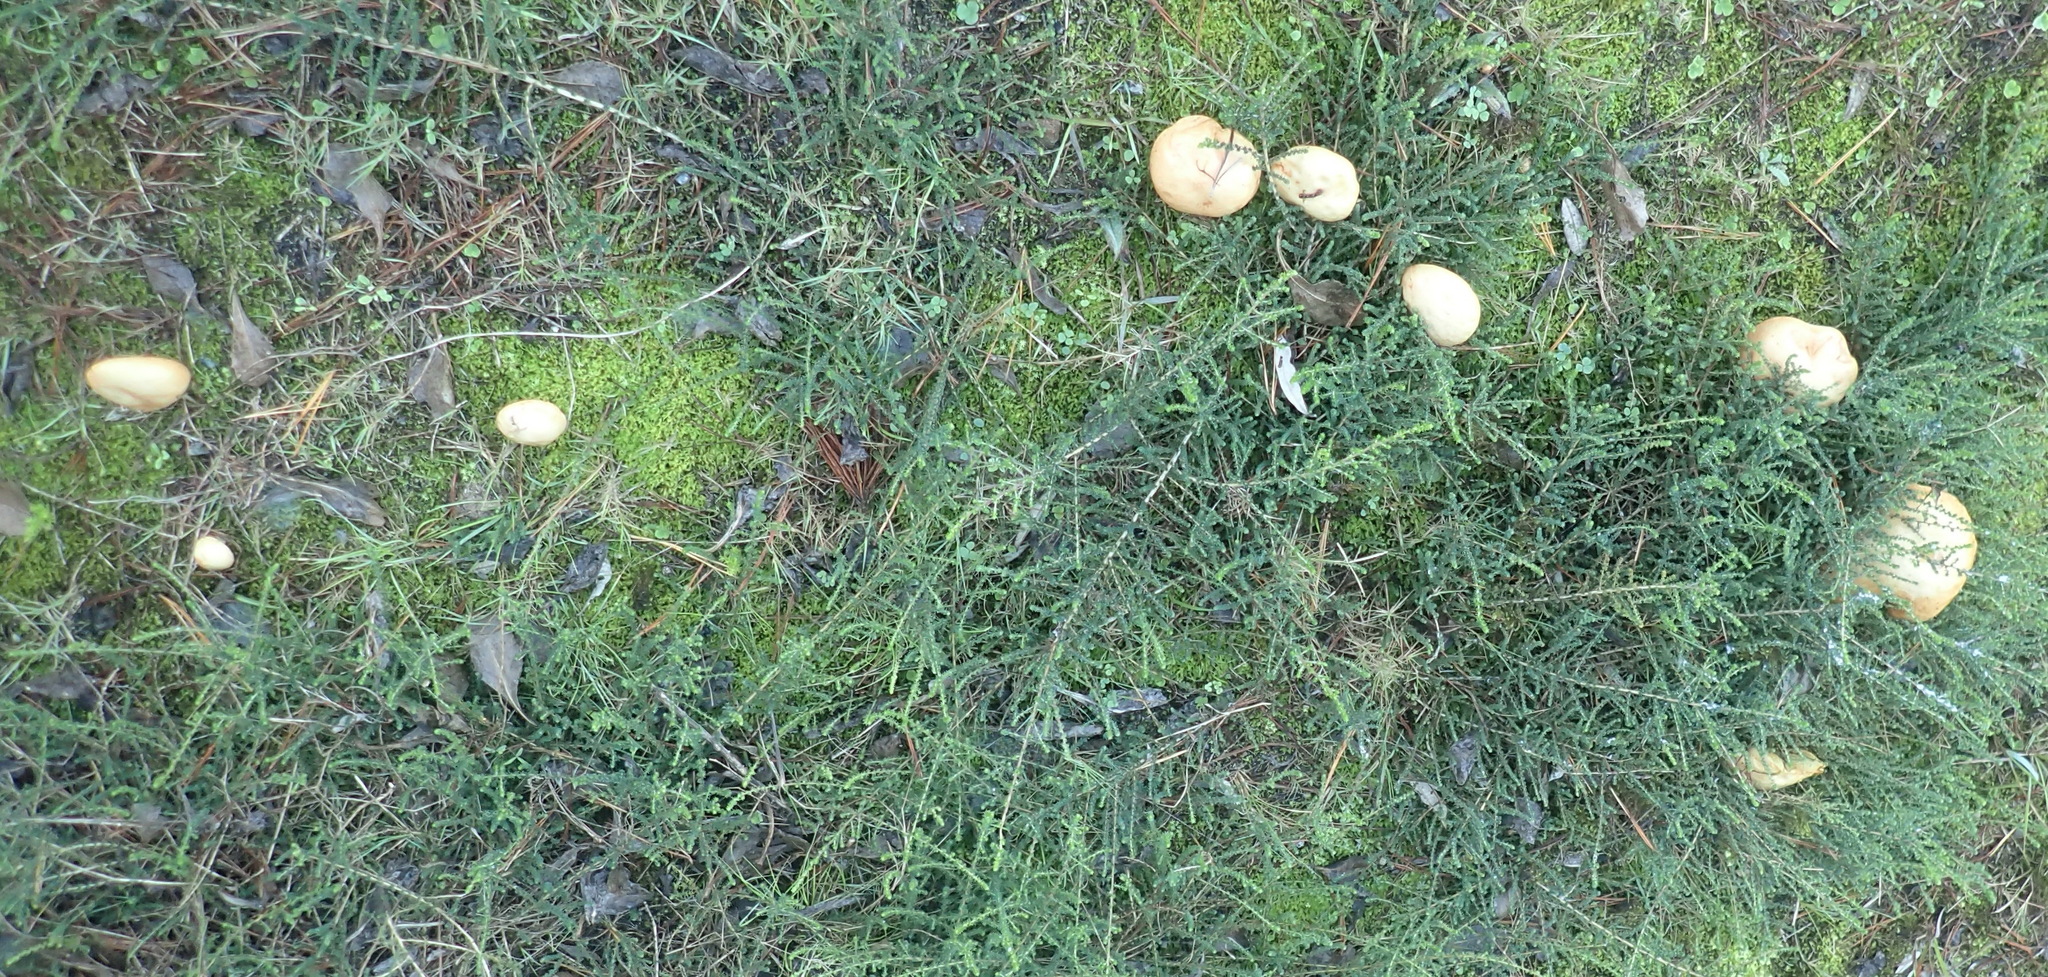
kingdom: Fungi
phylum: Basidiomycota
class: Agaricomycetes
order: Boletales
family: Suillaceae
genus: Suillus
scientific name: Suillus bellinii
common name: Champagne bolete
